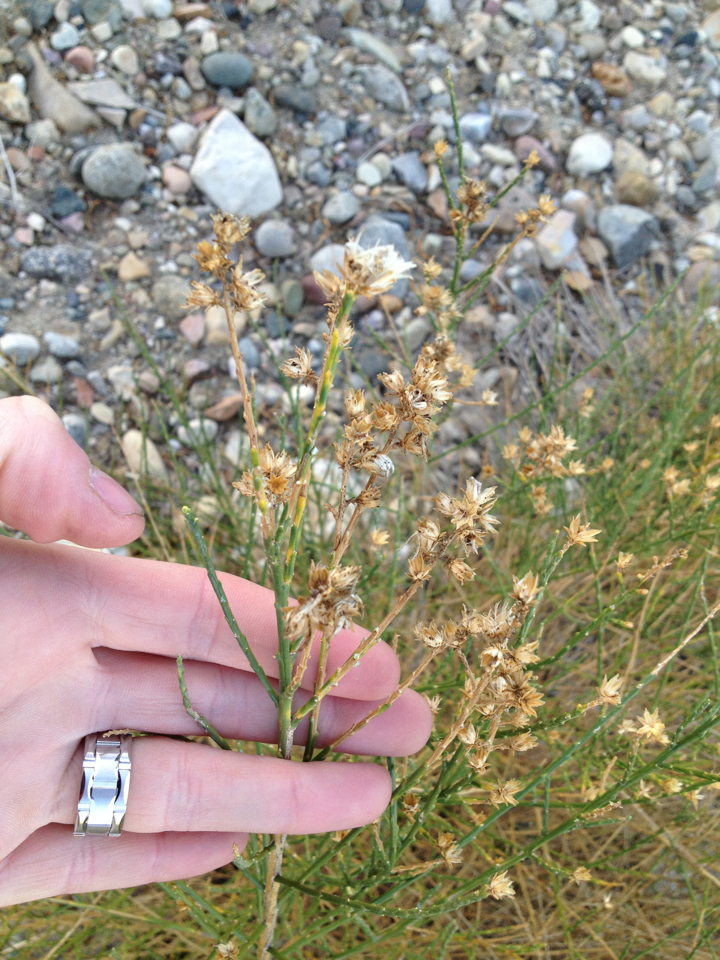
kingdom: Plantae
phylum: Tracheophyta
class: Magnoliopsida
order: Asterales
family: Asteraceae
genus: Lepidospartum
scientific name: Lepidospartum squamatum
